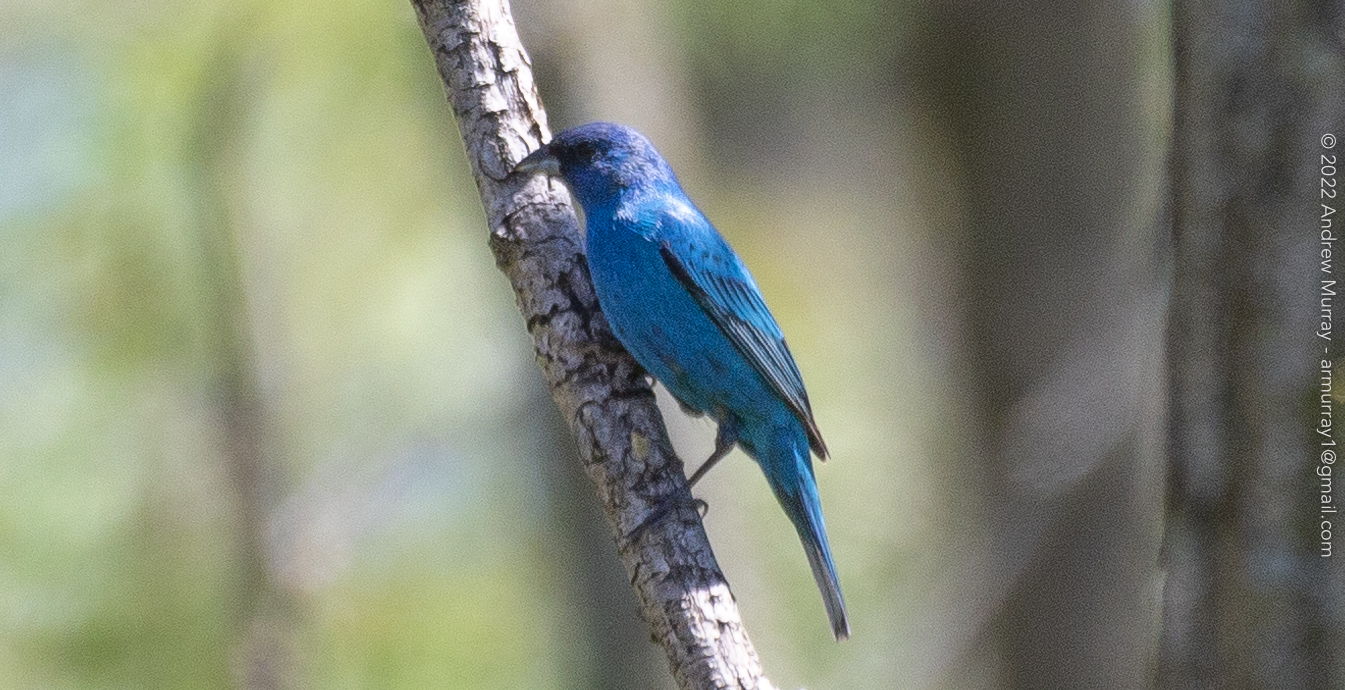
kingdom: Animalia
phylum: Chordata
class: Aves
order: Passeriformes
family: Cardinalidae
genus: Passerina
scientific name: Passerina cyanea
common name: Indigo bunting
